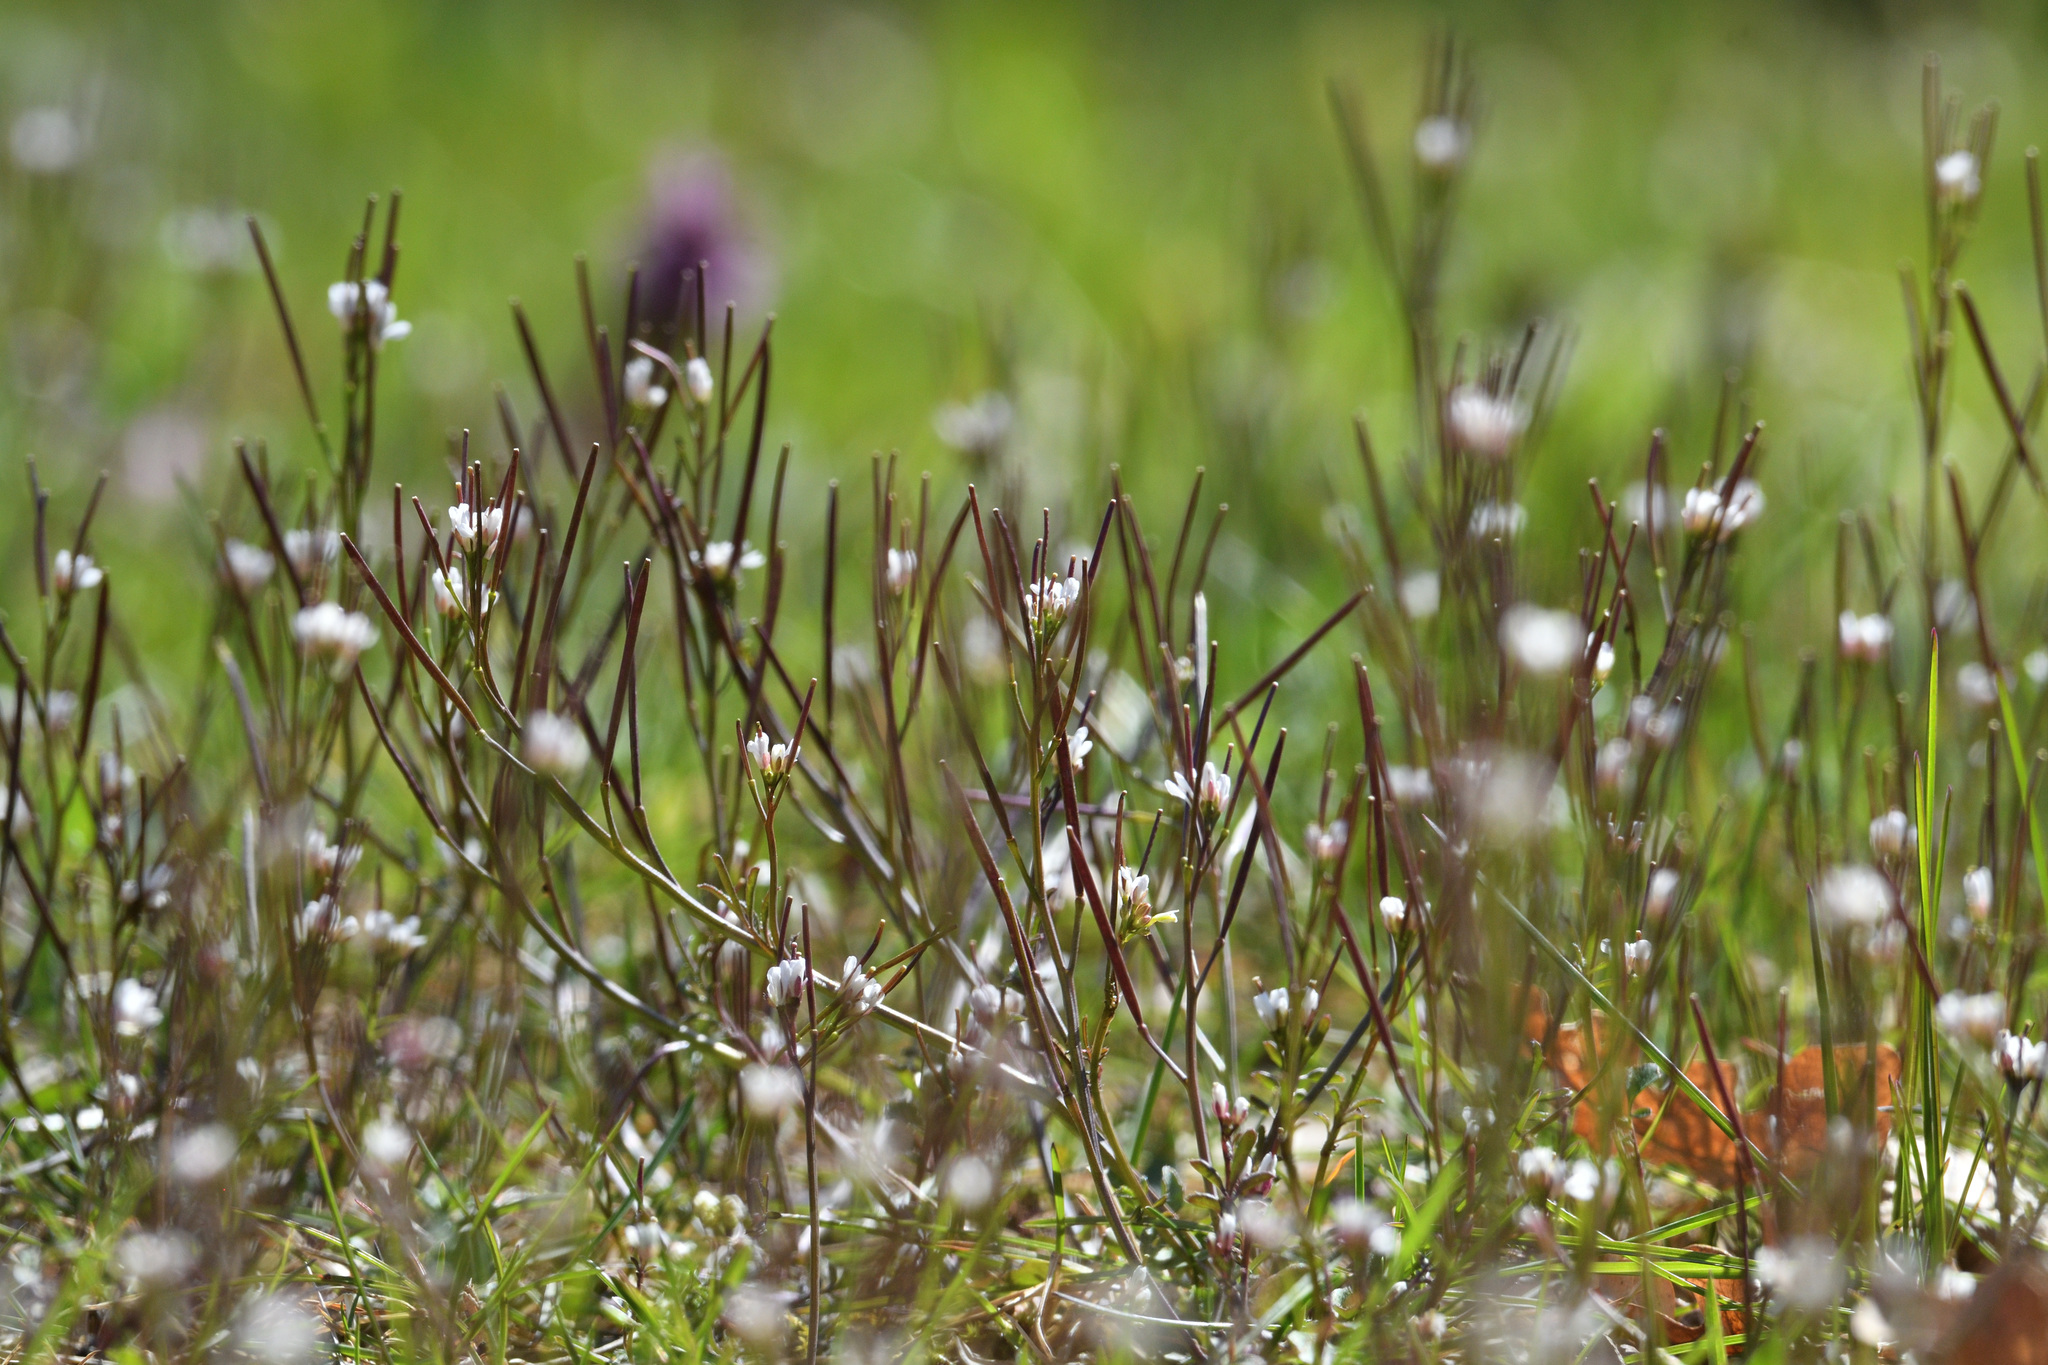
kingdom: Plantae
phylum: Tracheophyta
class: Magnoliopsida
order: Brassicales
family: Brassicaceae
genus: Cardamine
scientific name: Cardamine hirsuta
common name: Hairy bittercress
